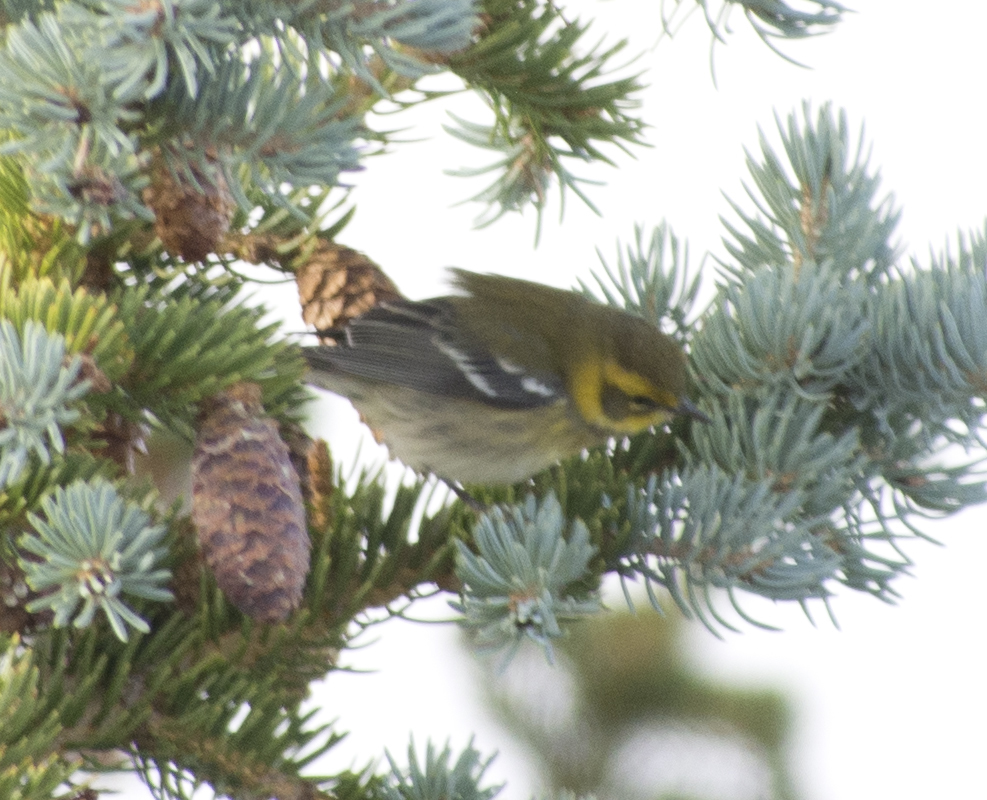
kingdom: Animalia
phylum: Chordata
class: Aves
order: Passeriformes
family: Parulidae
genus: Setophaga
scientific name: Setophaga townsendi
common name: Townsend's warbler
